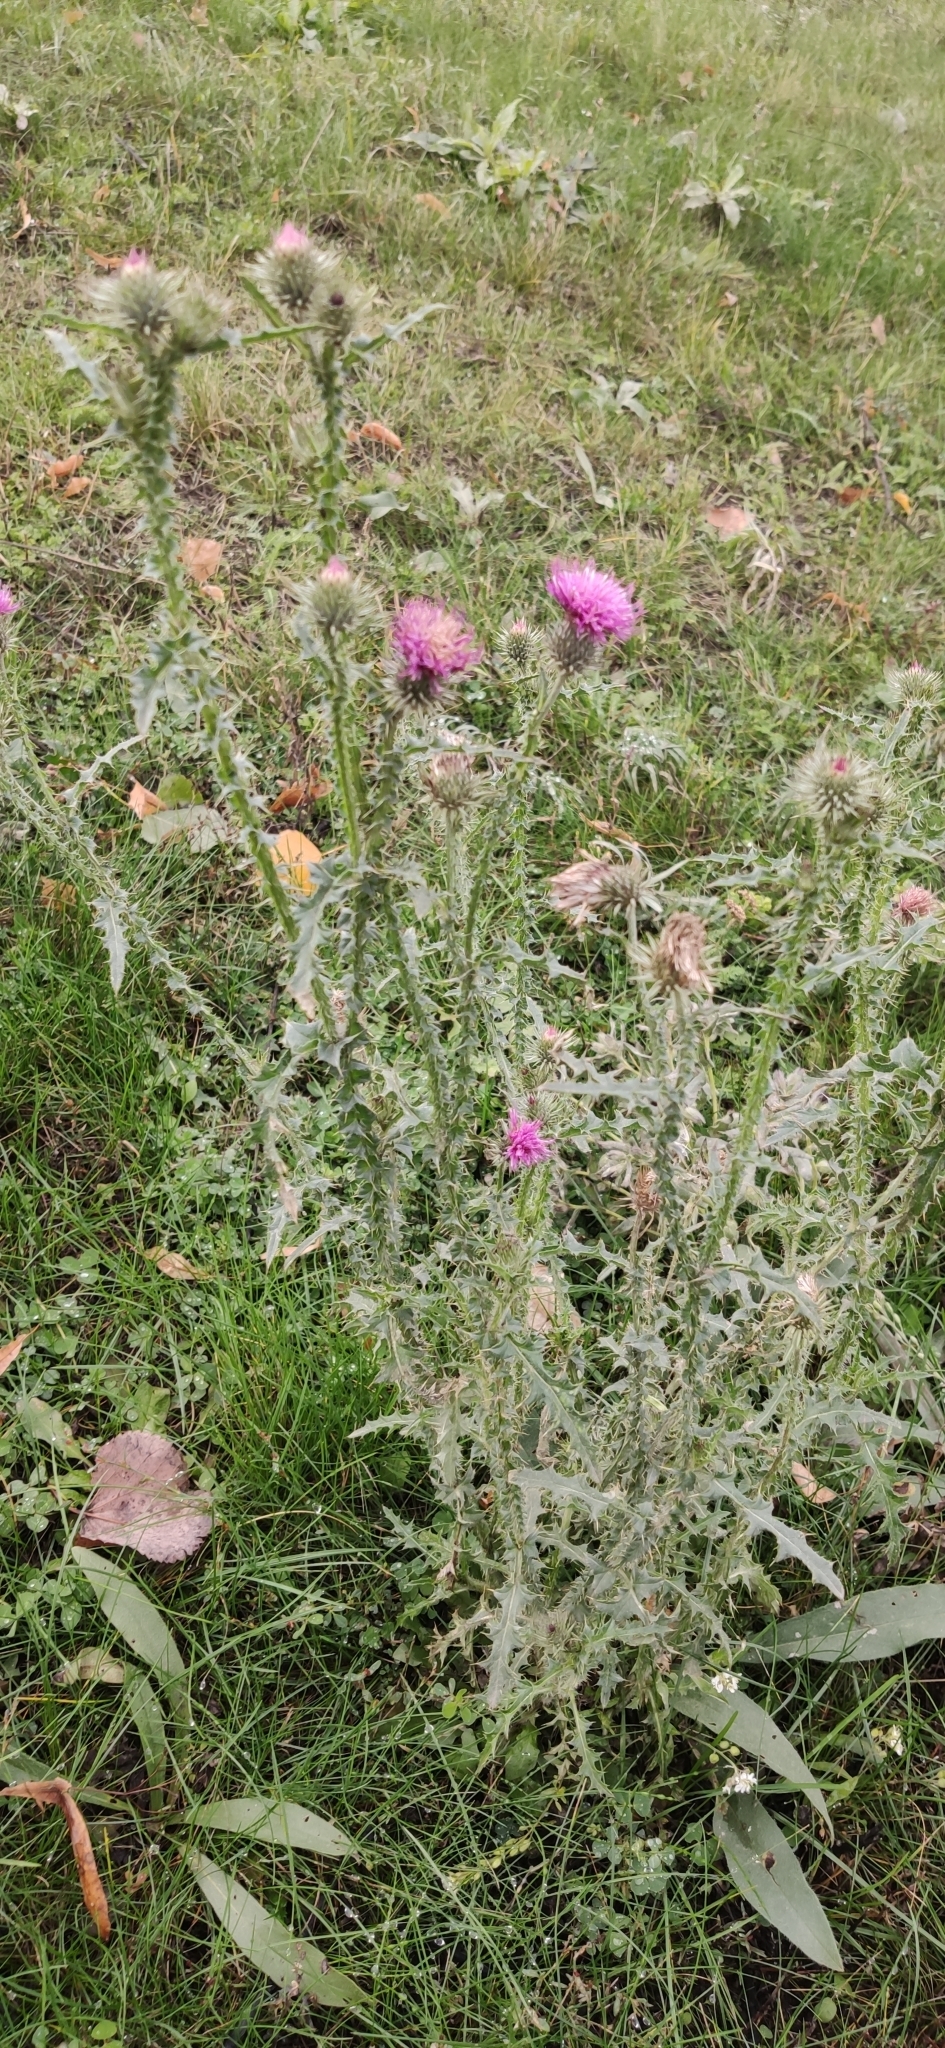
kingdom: Plantae
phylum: Tracheophyta
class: Magnoliopsida
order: Asterales
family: Asteraceae
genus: Carduus
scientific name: Carduus acanthoides
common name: Plumeless thistle
